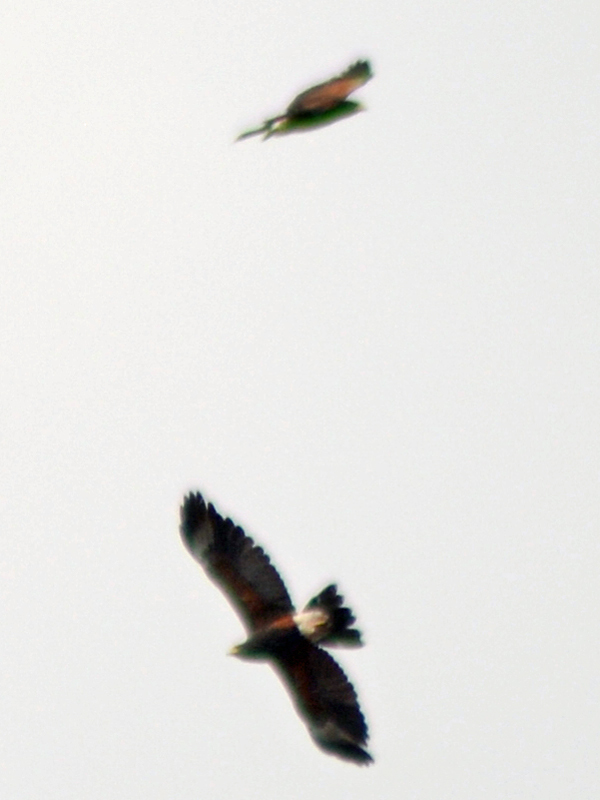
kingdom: Animalia
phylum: Chordata
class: Aves
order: Accipitriformes
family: Accipitridae
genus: Parabuteo
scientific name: Parabuteo unicinctus
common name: Harris's hawk
